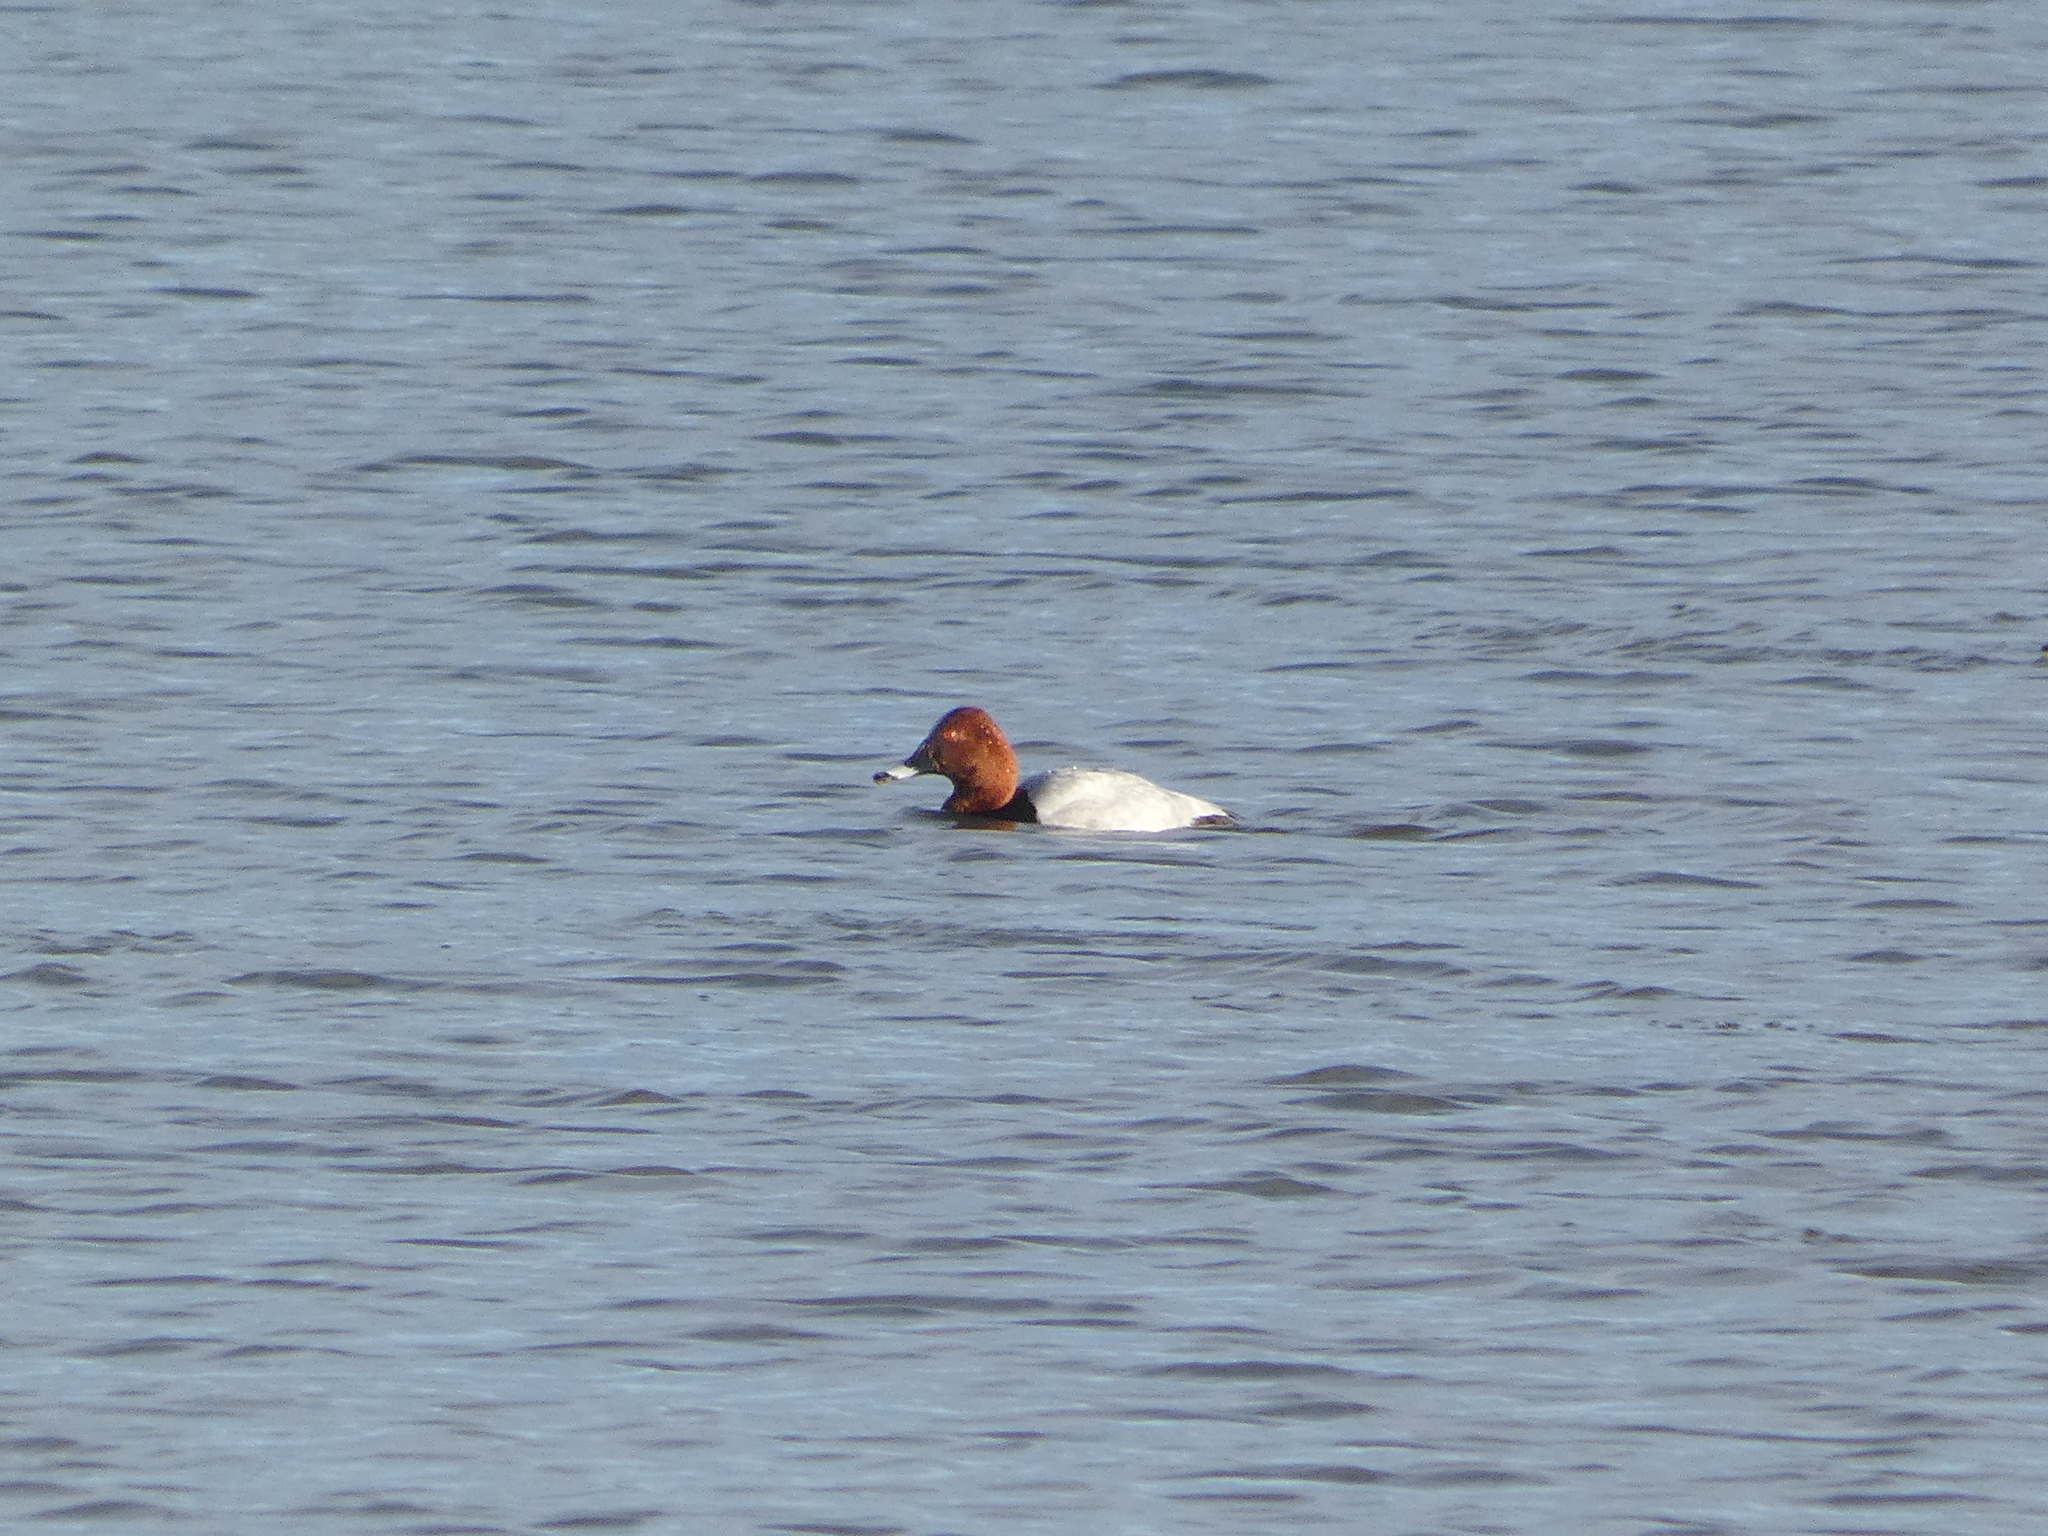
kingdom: Animalia
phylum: Chordata
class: Aves
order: Anseriformes
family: Anatidae
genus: Aythya
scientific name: Aythya ferina
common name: Common pochard
